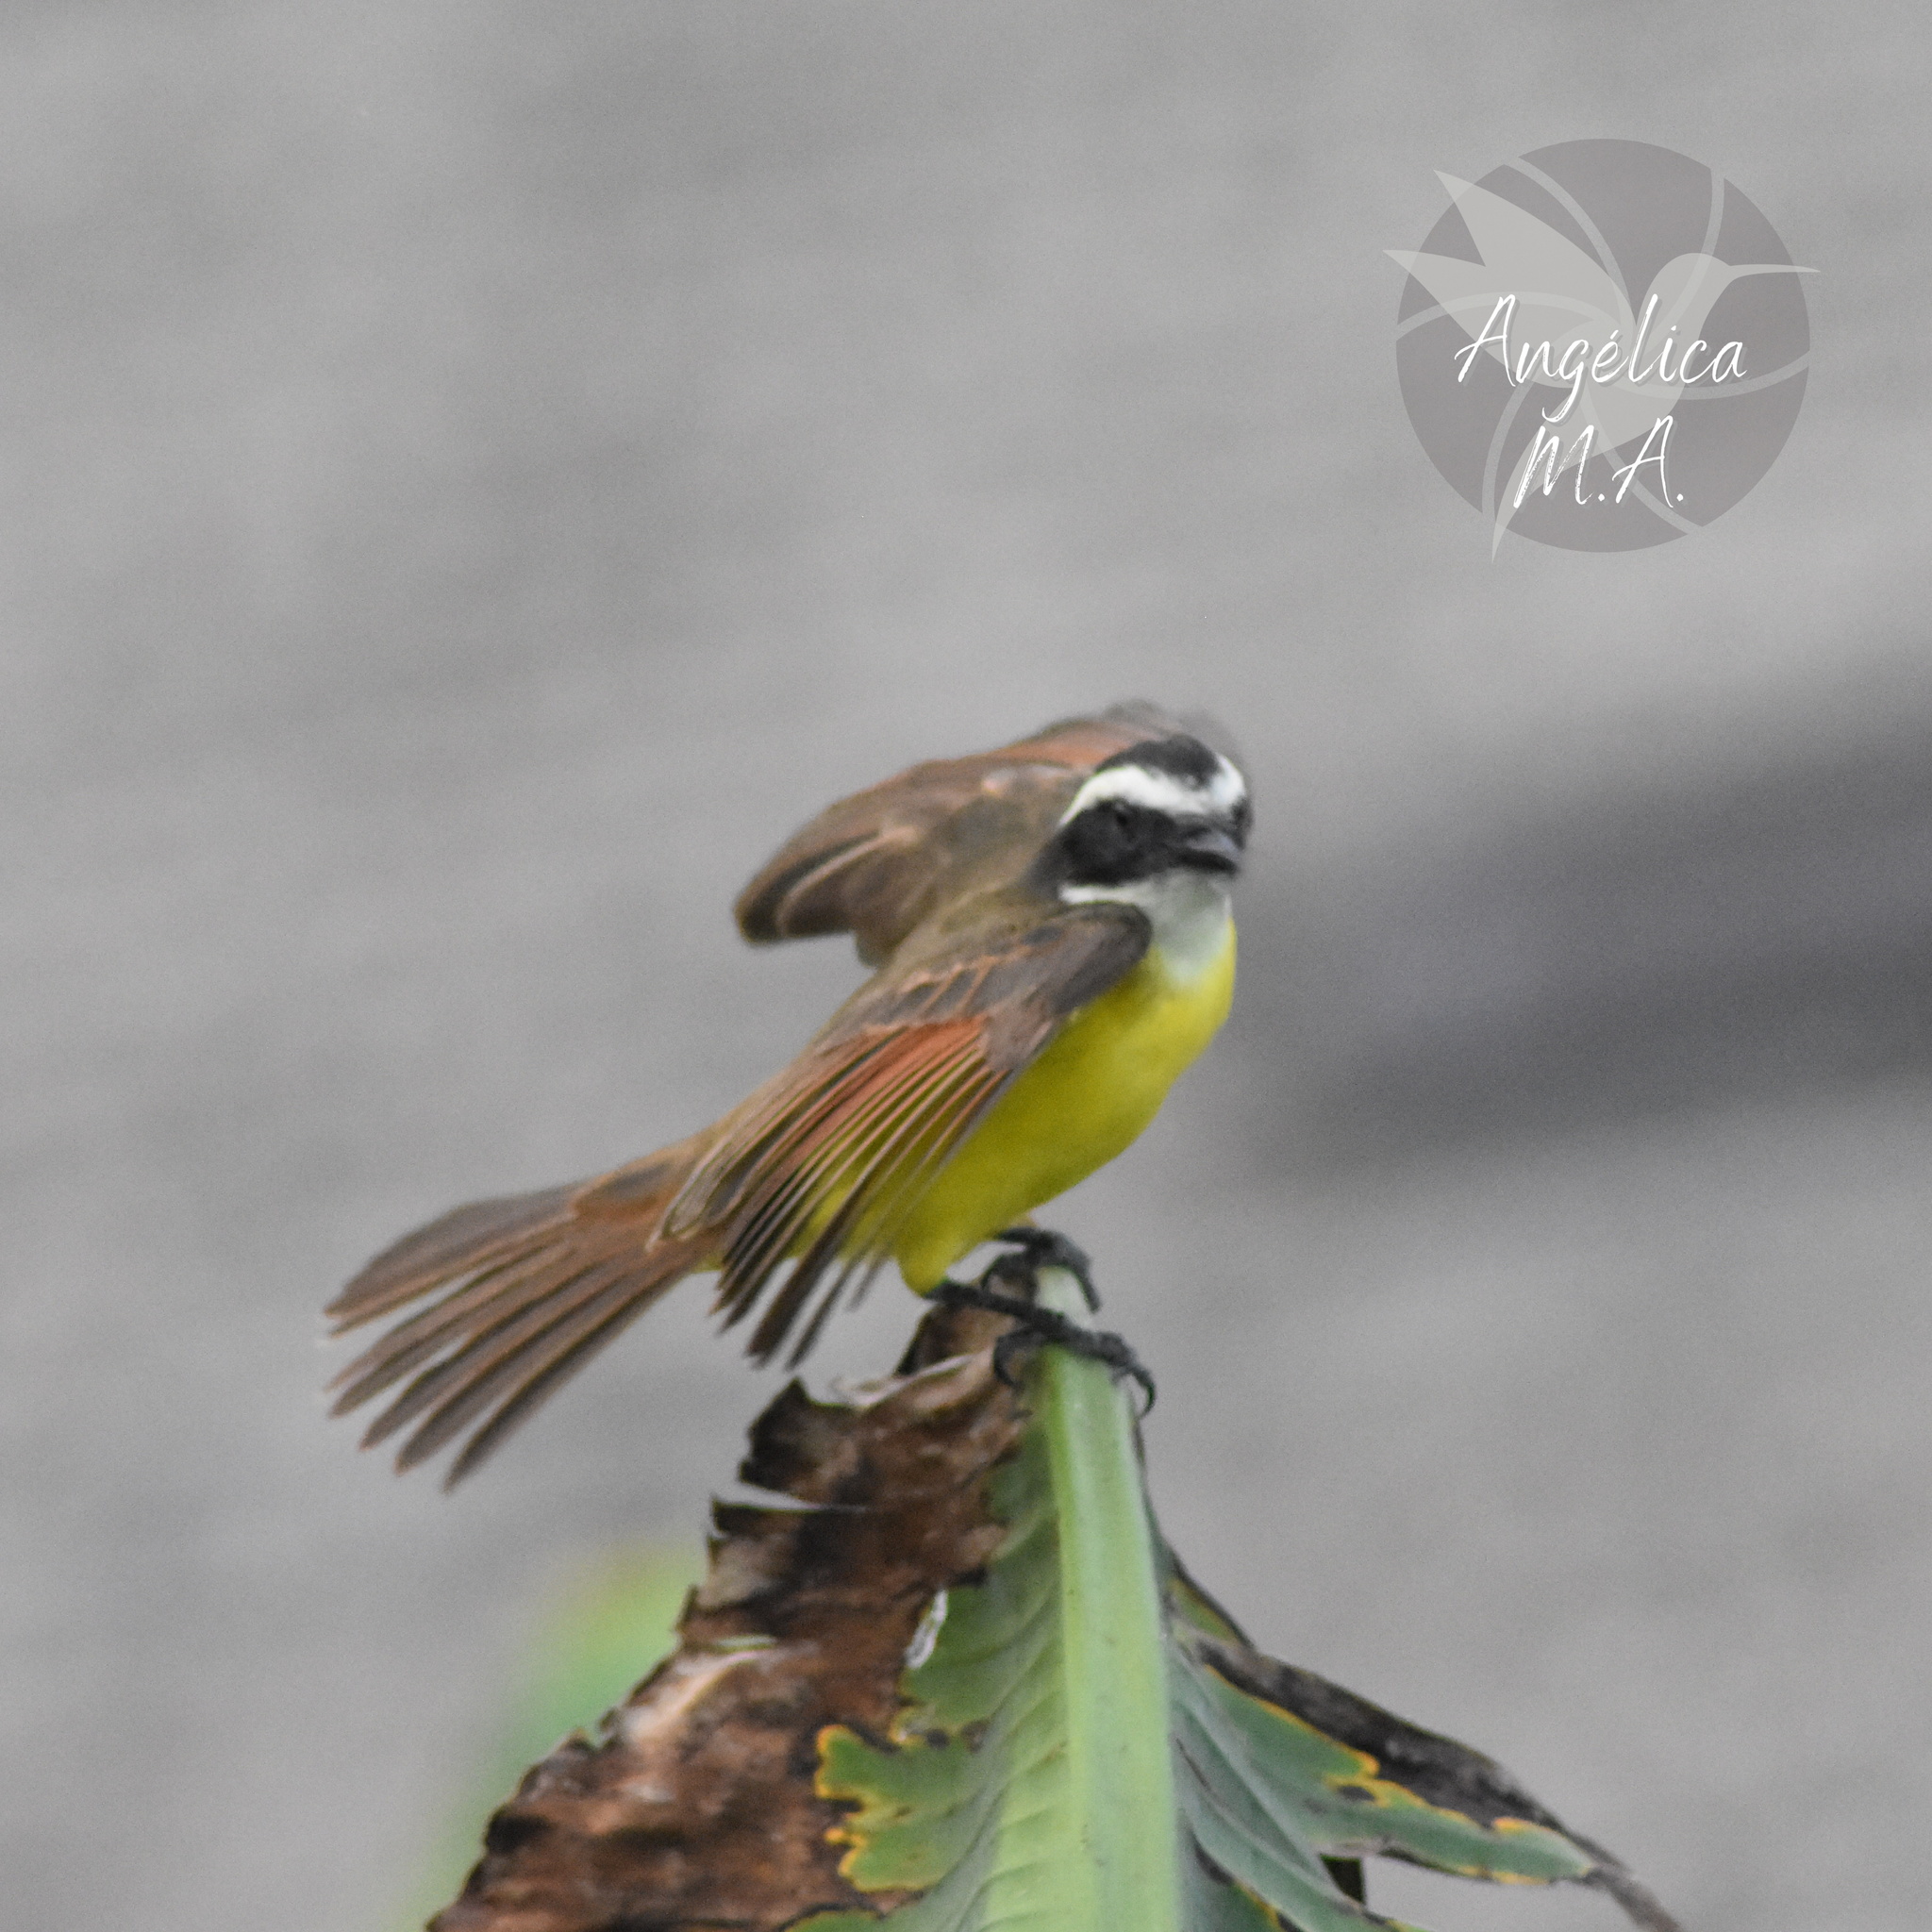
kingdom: Animalia
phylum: Chordata
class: Aves
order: Passeriformes
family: Tyrannidae
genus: Myiozetetes
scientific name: Myiozetetes cayanensis
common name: Rusty-margined flycatcher
